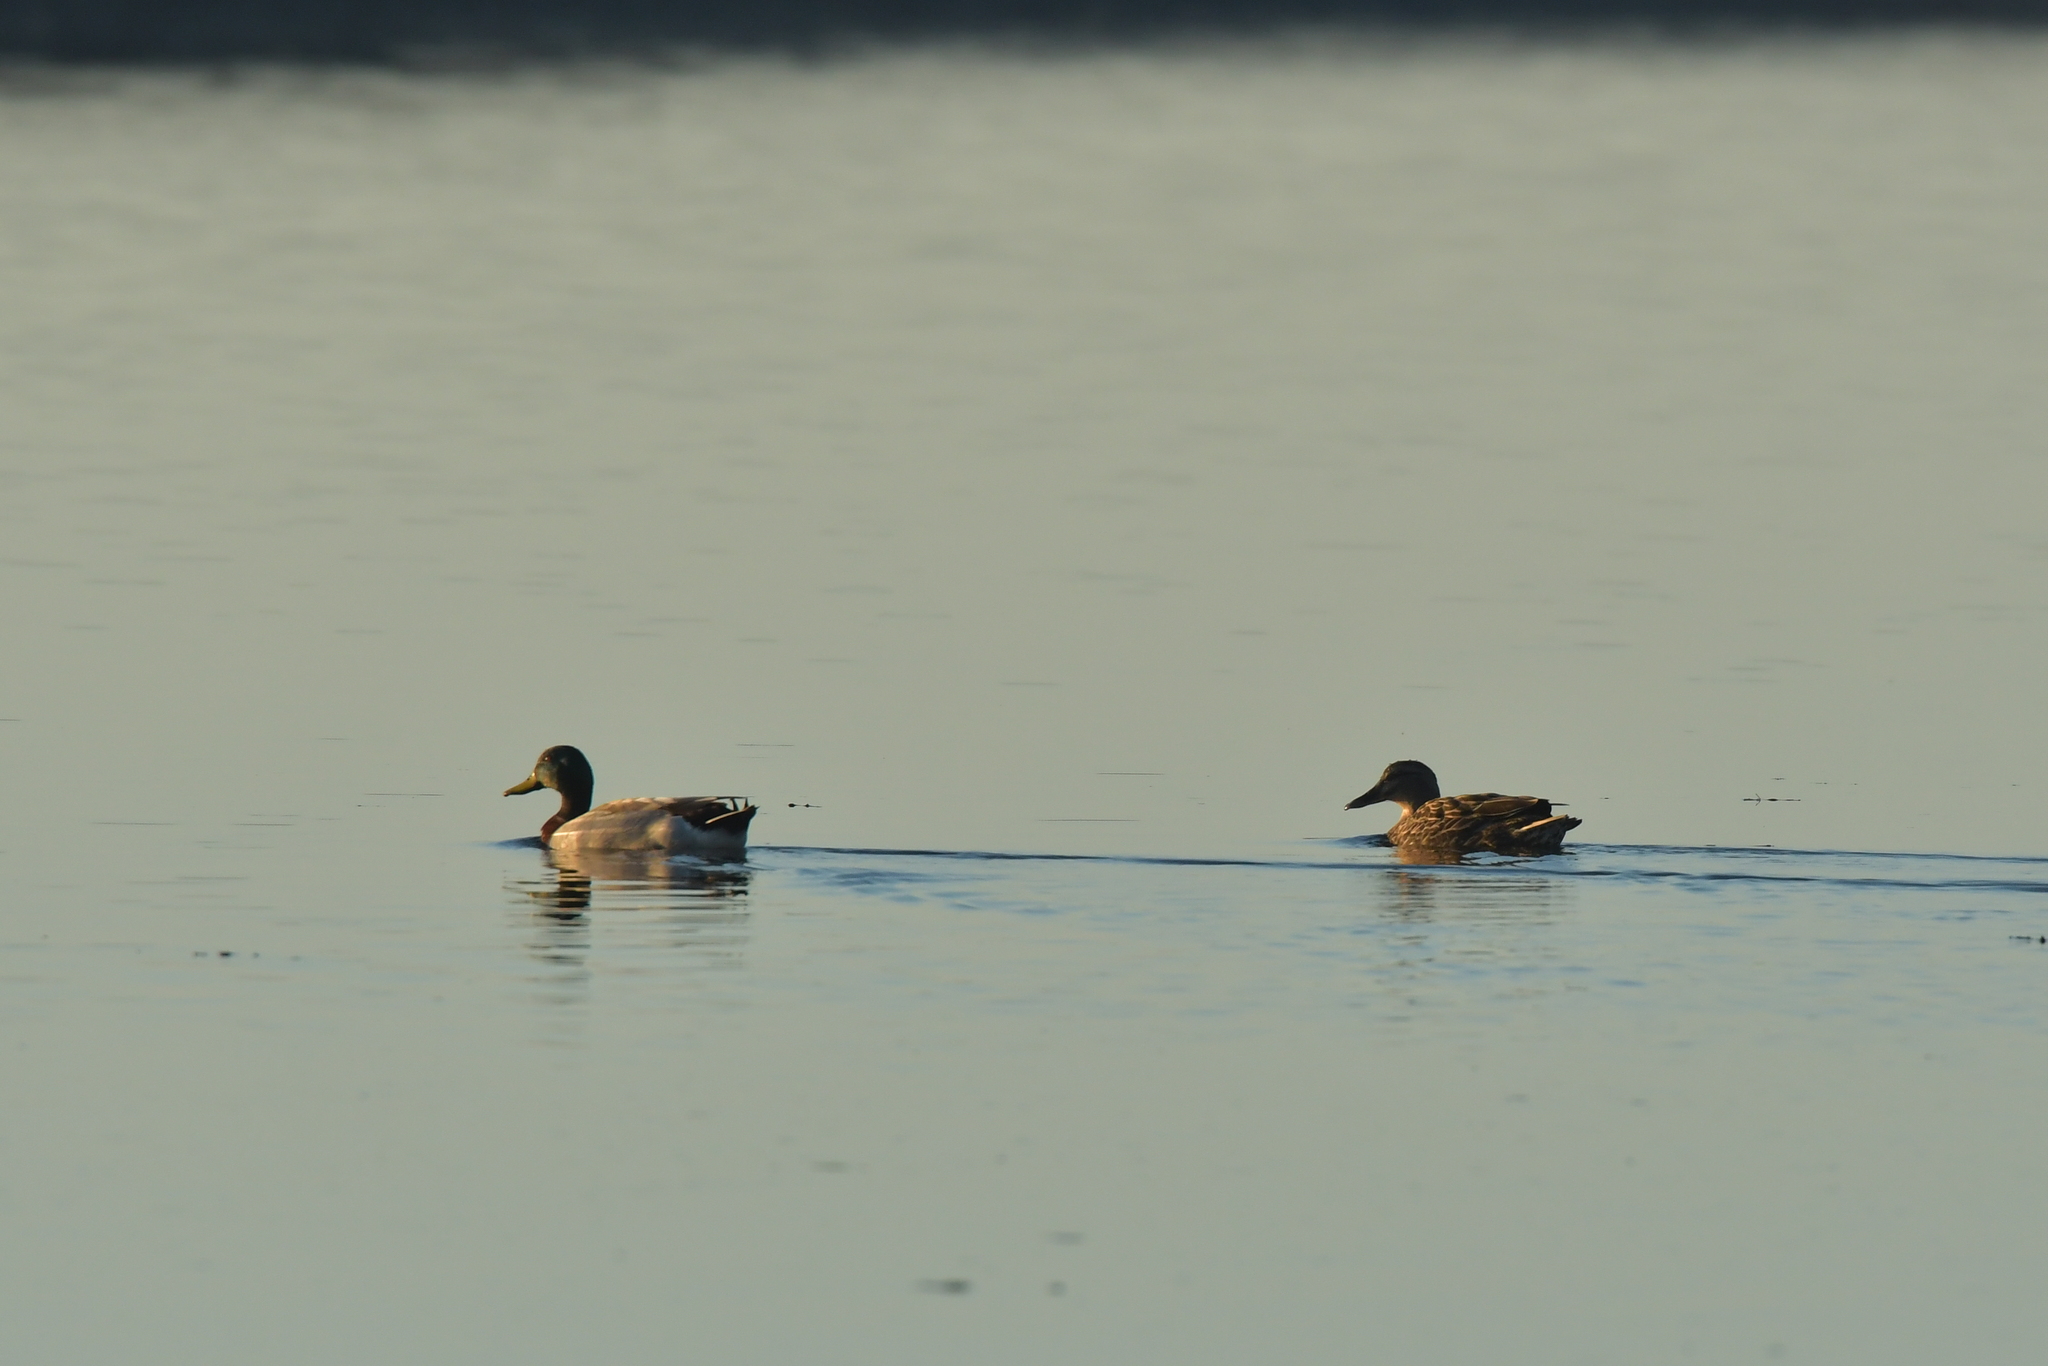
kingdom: Animalia
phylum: Chordata
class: Aves
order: Anseriformes
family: Anatidae
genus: Anas
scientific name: Anas platyrhynchos
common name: Mallard
